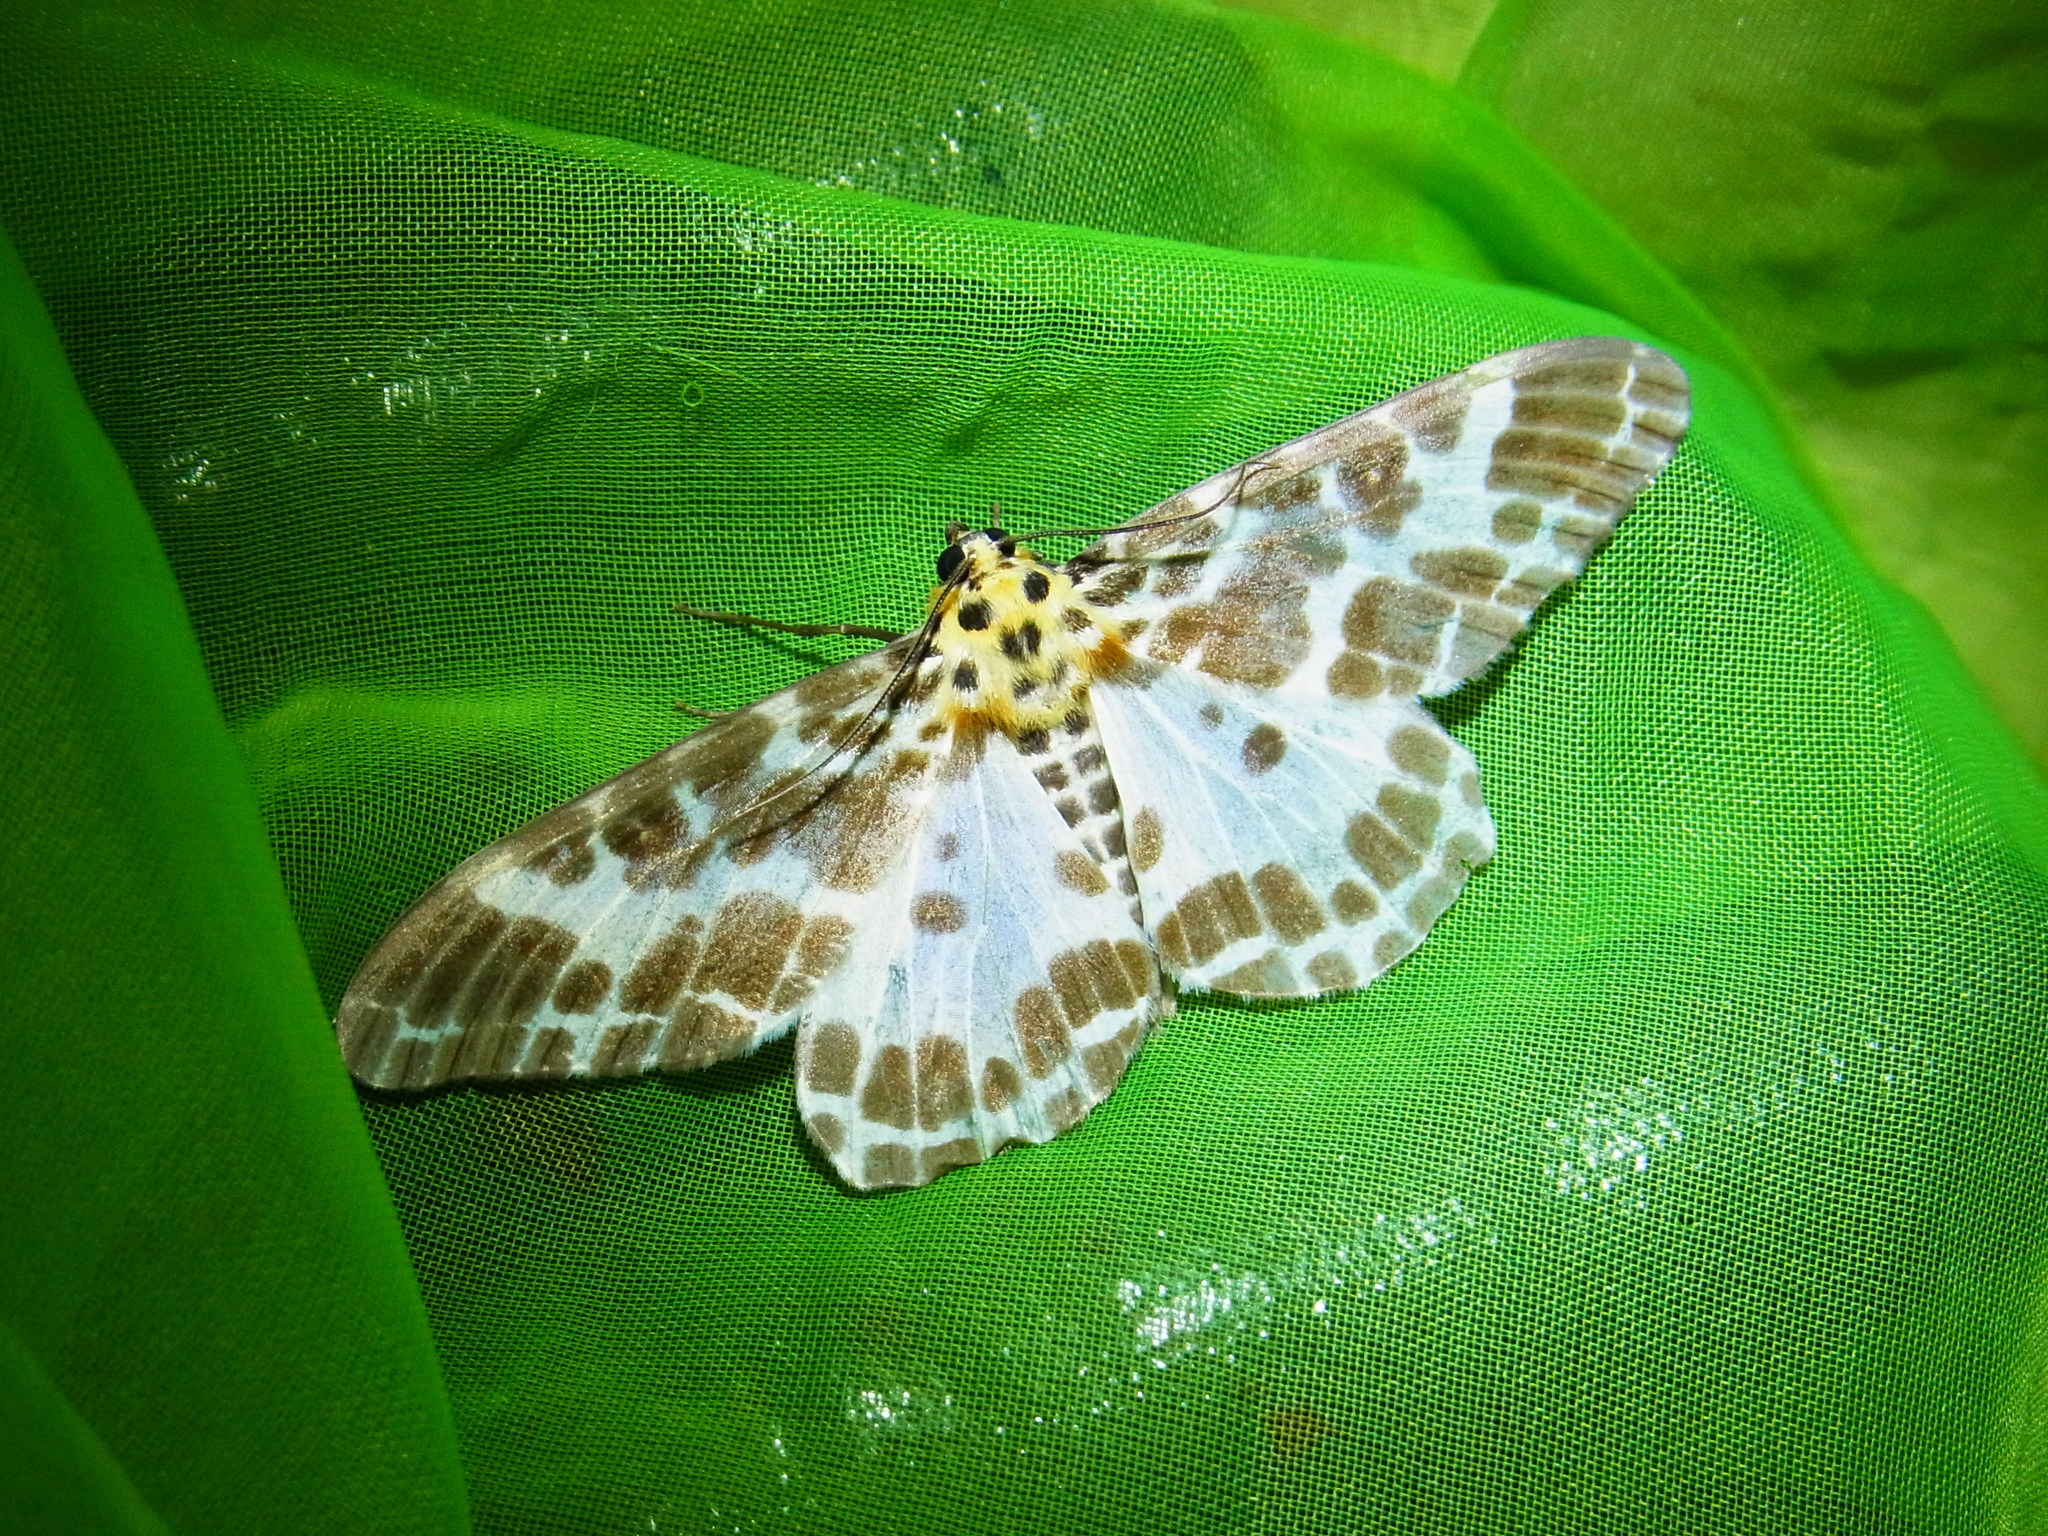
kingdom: Animalia
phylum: Arthropoda
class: Insecta
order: Lepidoptera
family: Geometridae
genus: Pogonopygia
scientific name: Pogonopygia nigralbata
